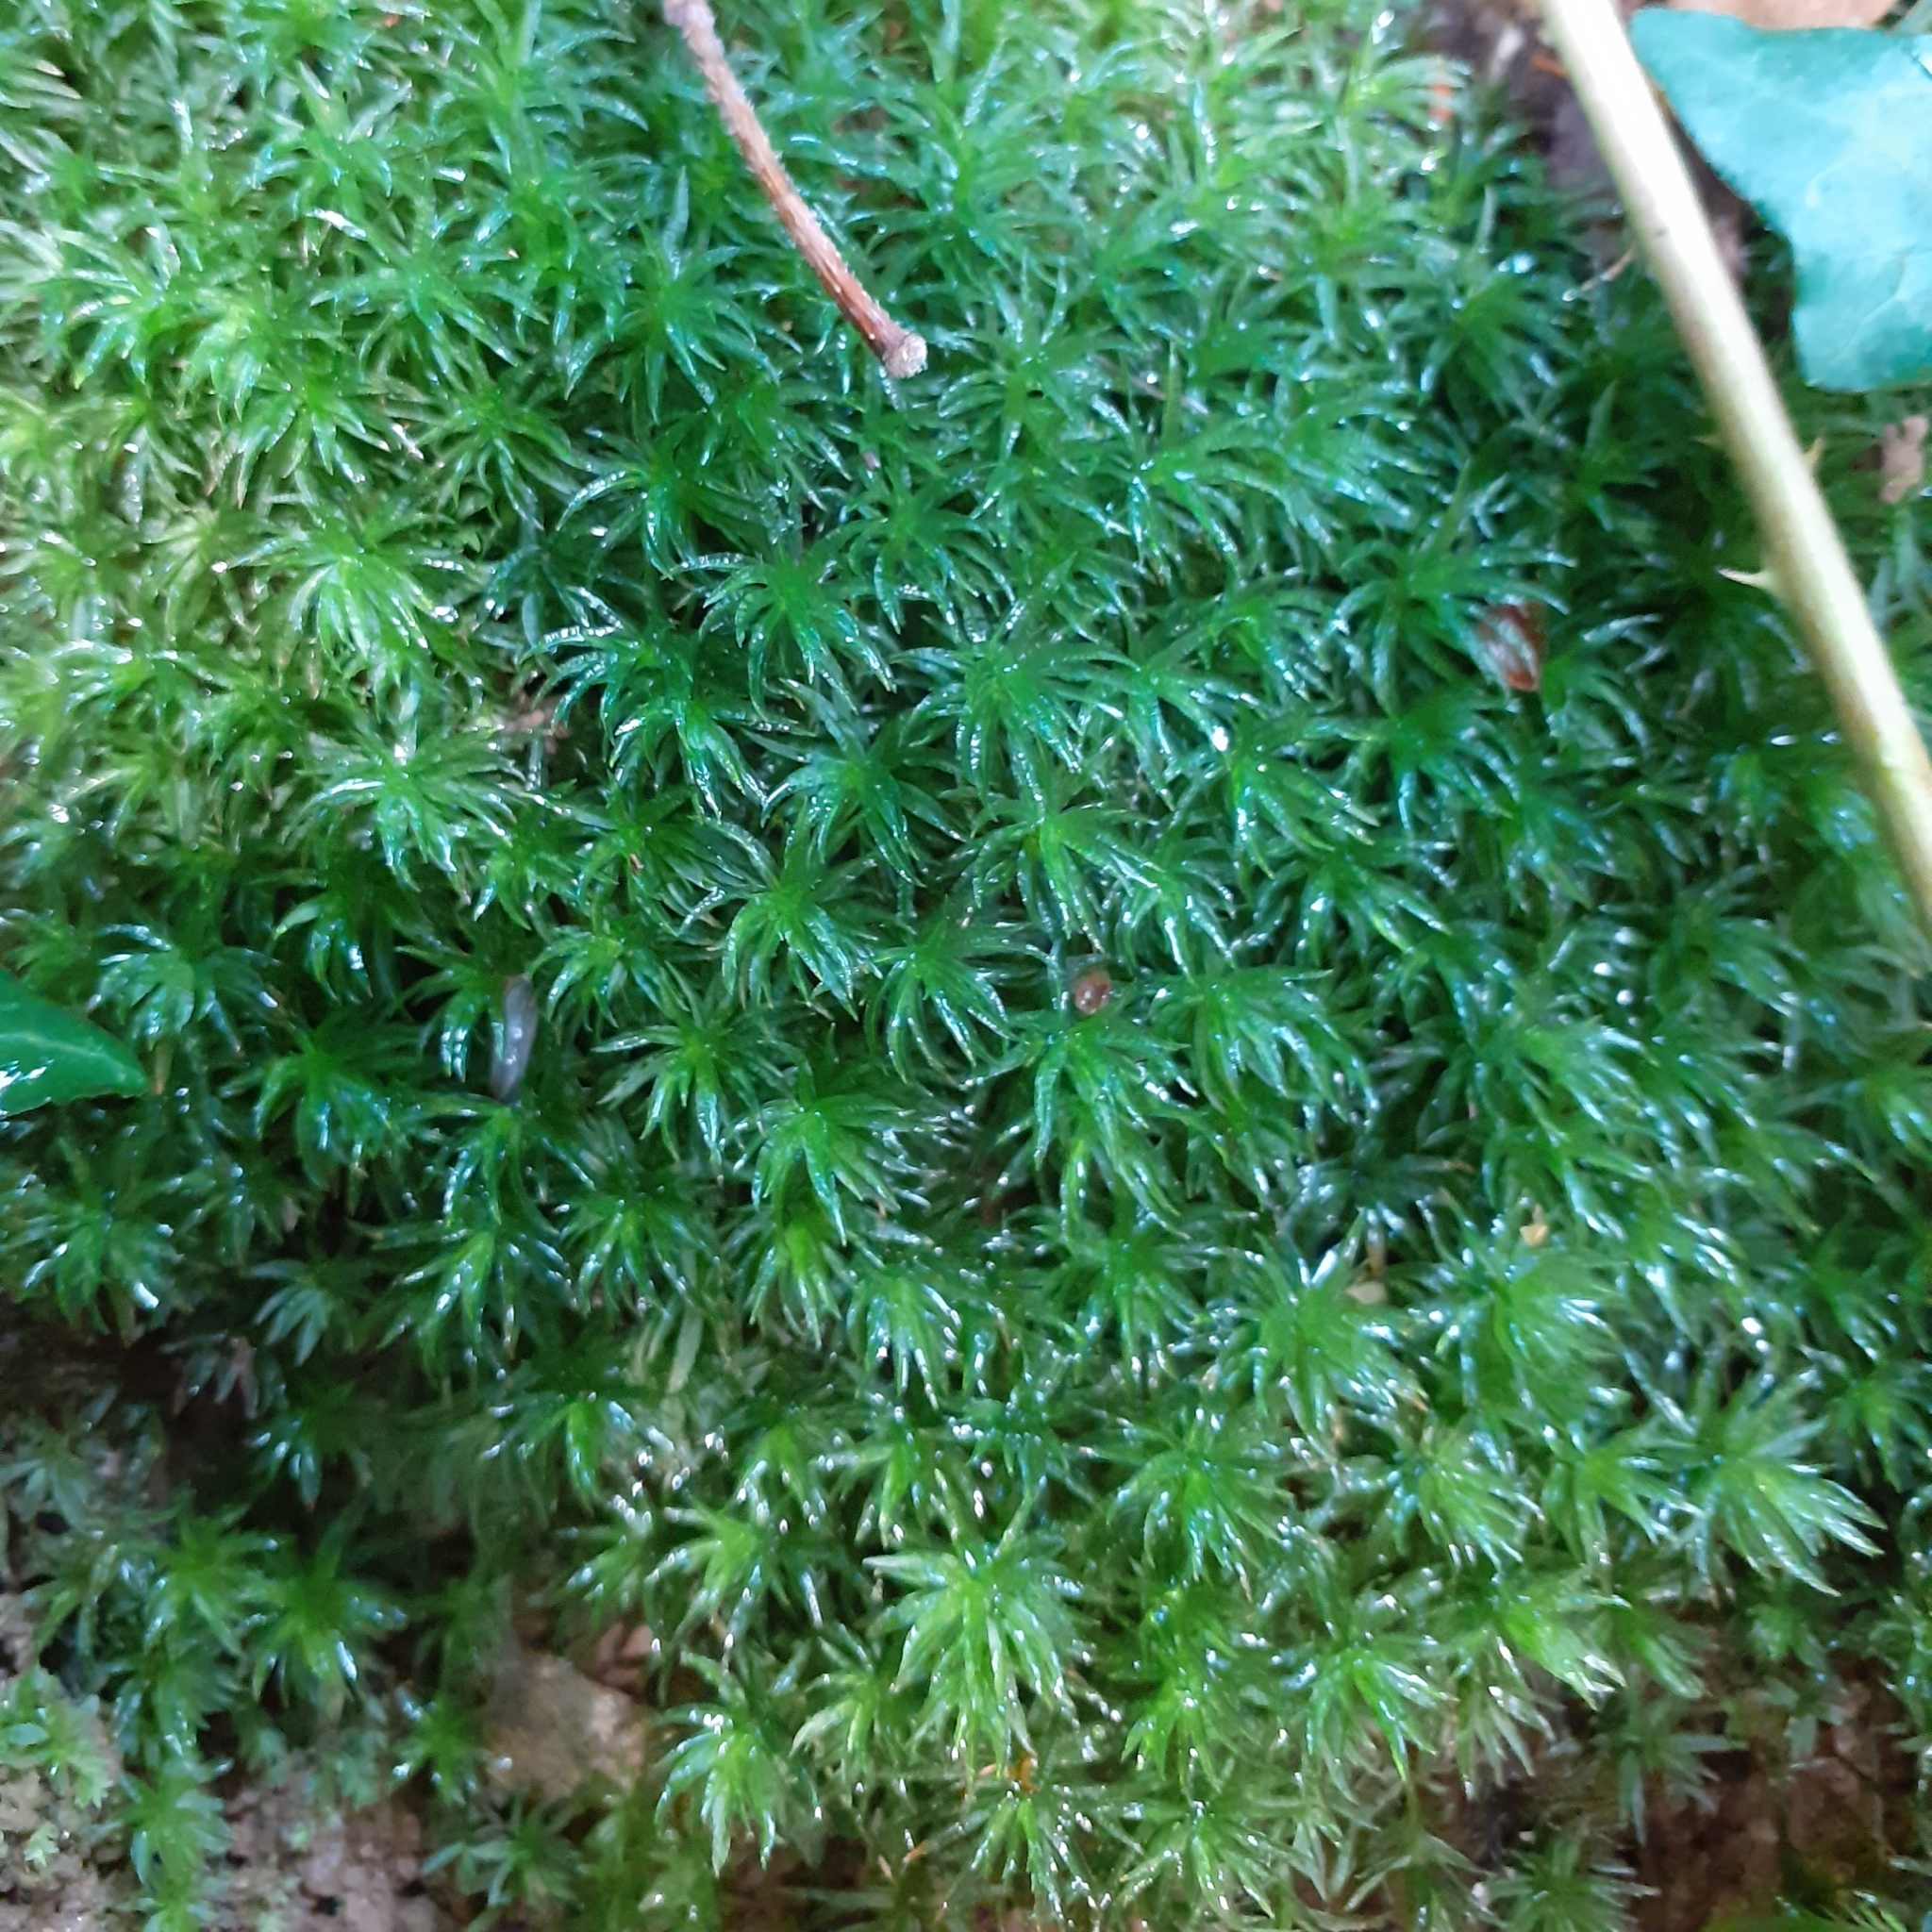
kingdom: Plantae
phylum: Bryophyta
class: Polytrichopsida
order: Polytrichales
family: Polytrichaceae
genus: Atrichum
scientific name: Atrichum undulatum
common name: Common smoothcap
